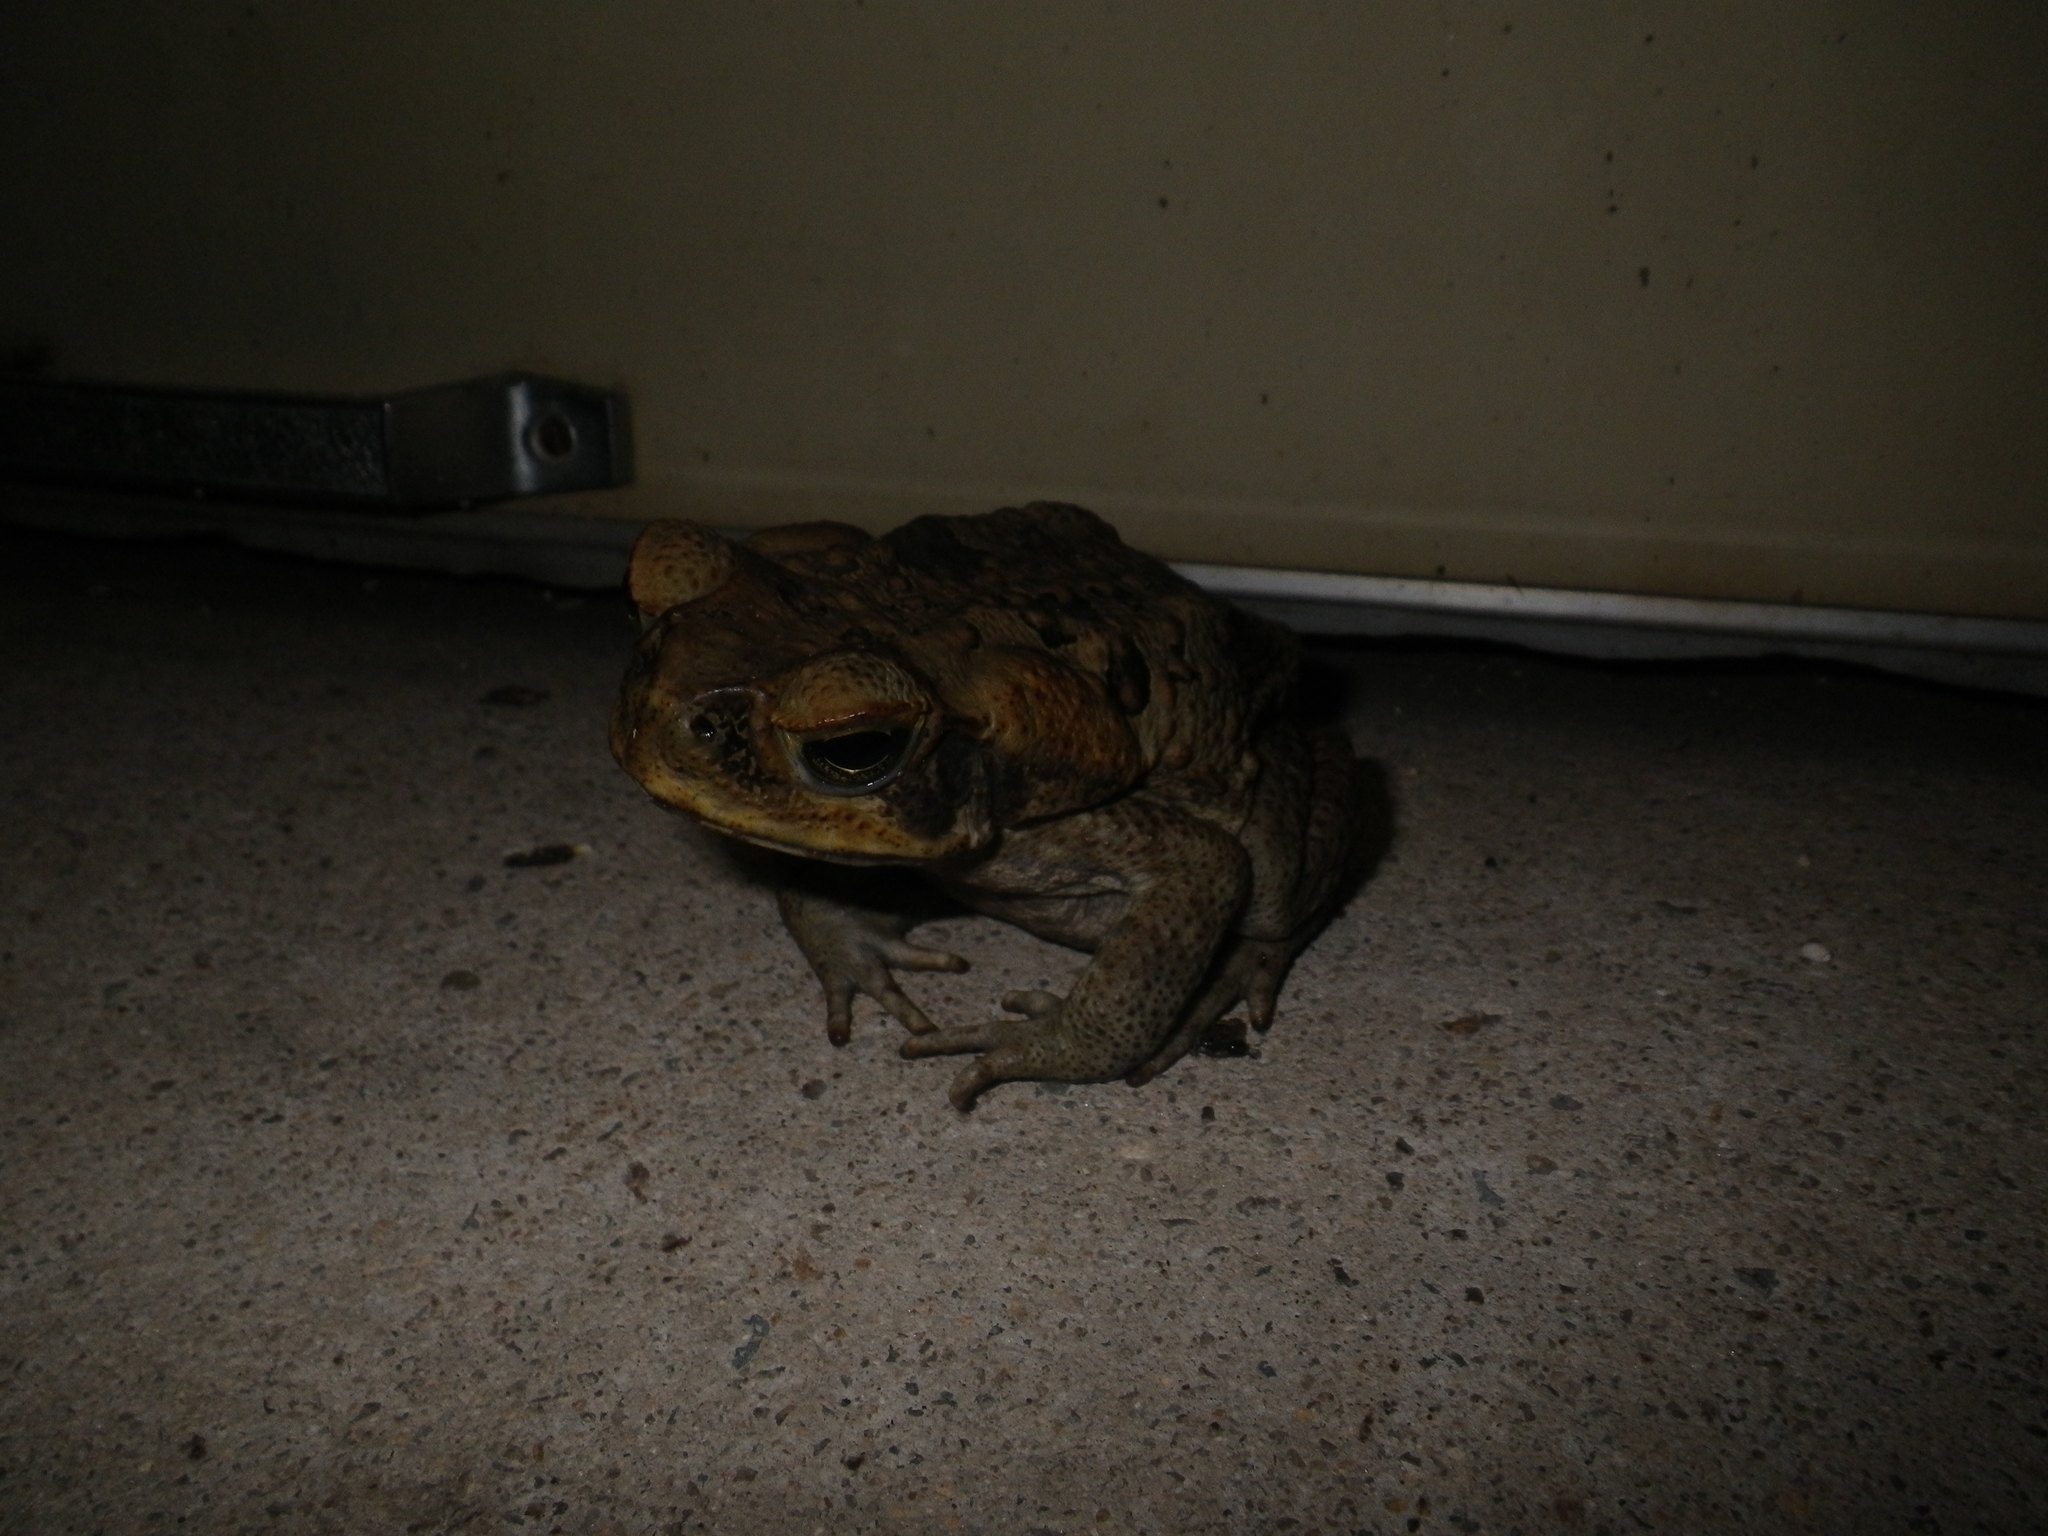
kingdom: Animalia
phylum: Chordata
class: Amphibia
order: Anura
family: Bufonidae
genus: Rhinella
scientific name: Rhinella marina
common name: Cane toad
